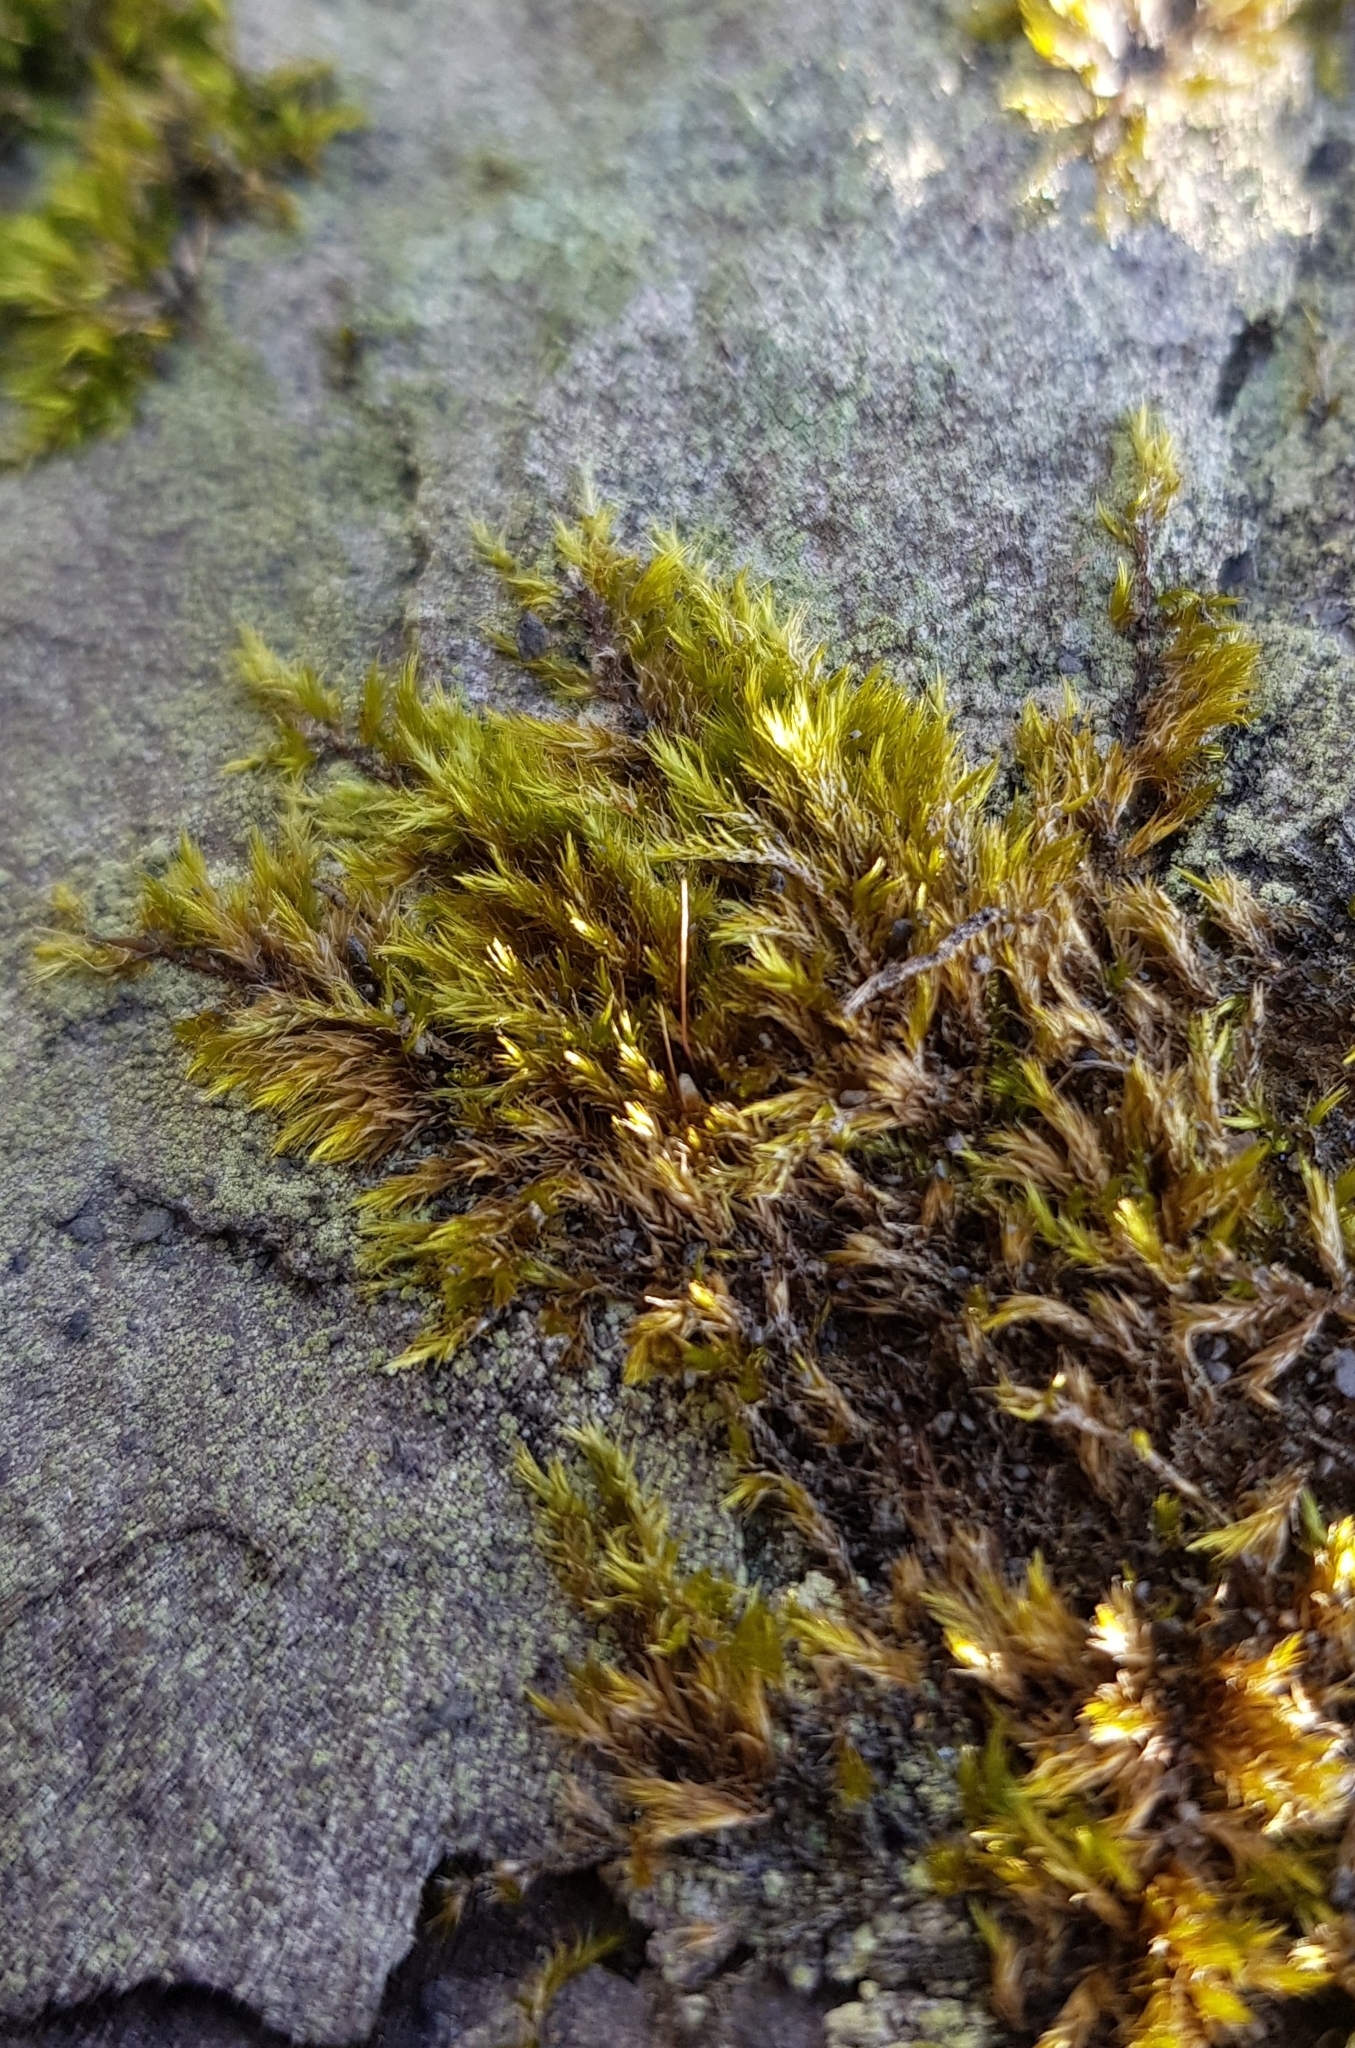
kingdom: Plantae
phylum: Bryophyta
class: Bryopsida
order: Hypnales
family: Brachytheciaceae
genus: Sciuro-hypnum
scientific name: Sciuro-hypnum populeum
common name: Matted feather-moss
